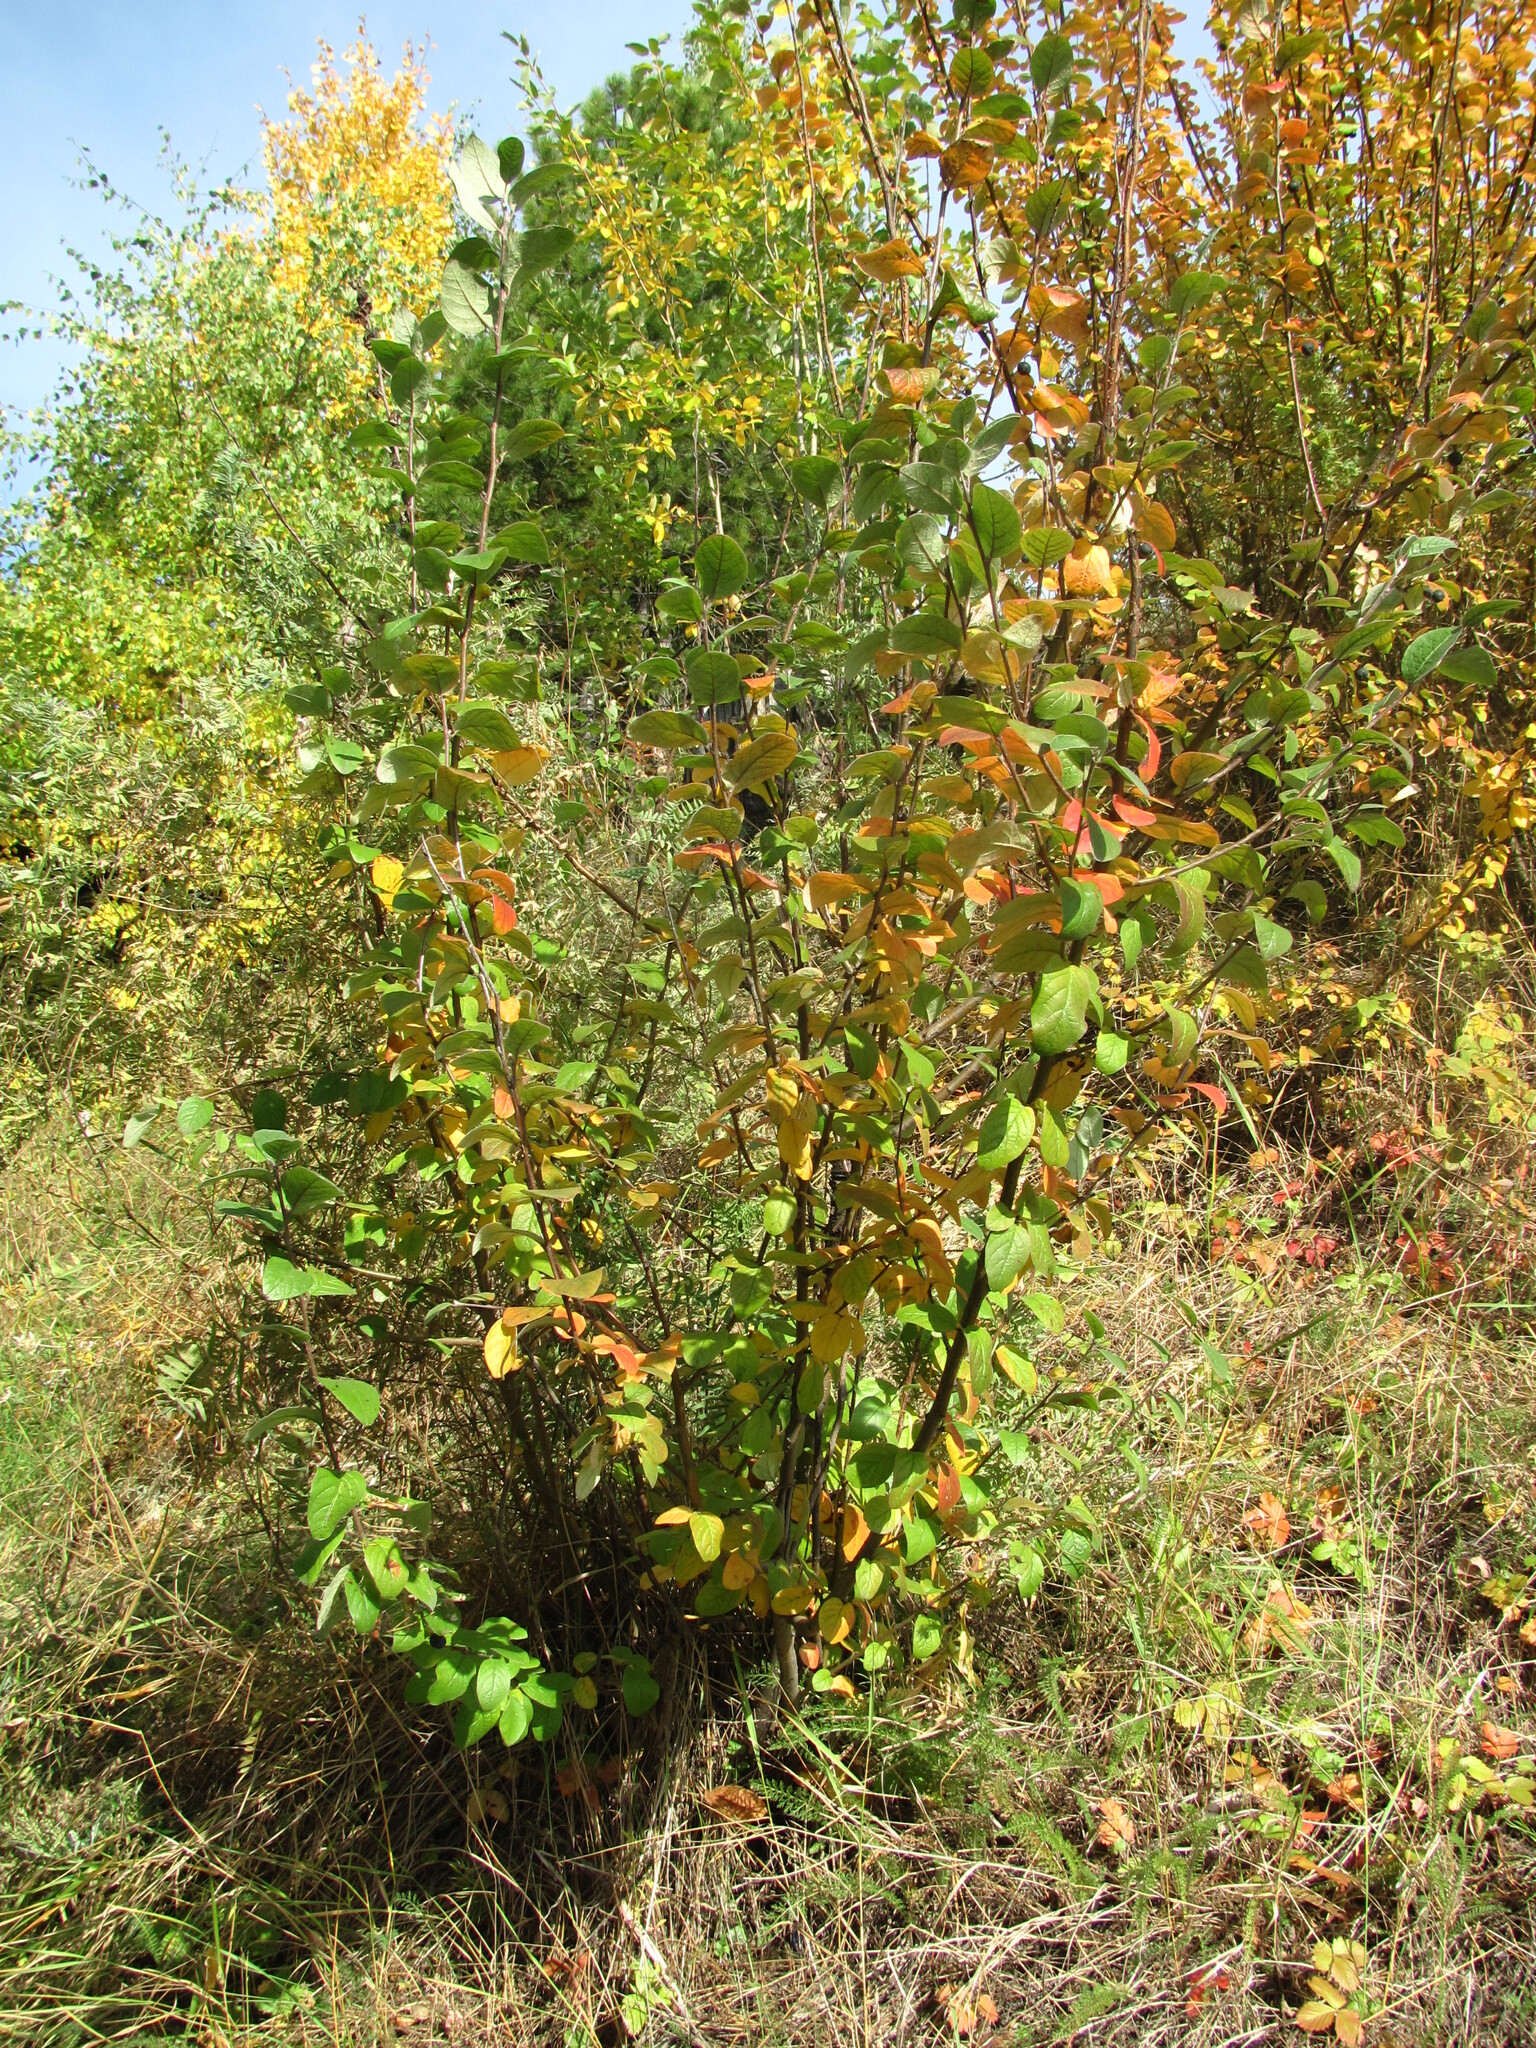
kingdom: Plantae
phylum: Tracheophyta
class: Magnoliopsida
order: Rosales
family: Rosaceae
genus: Cotoneaster
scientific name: Cotoneaster melanocarpus
